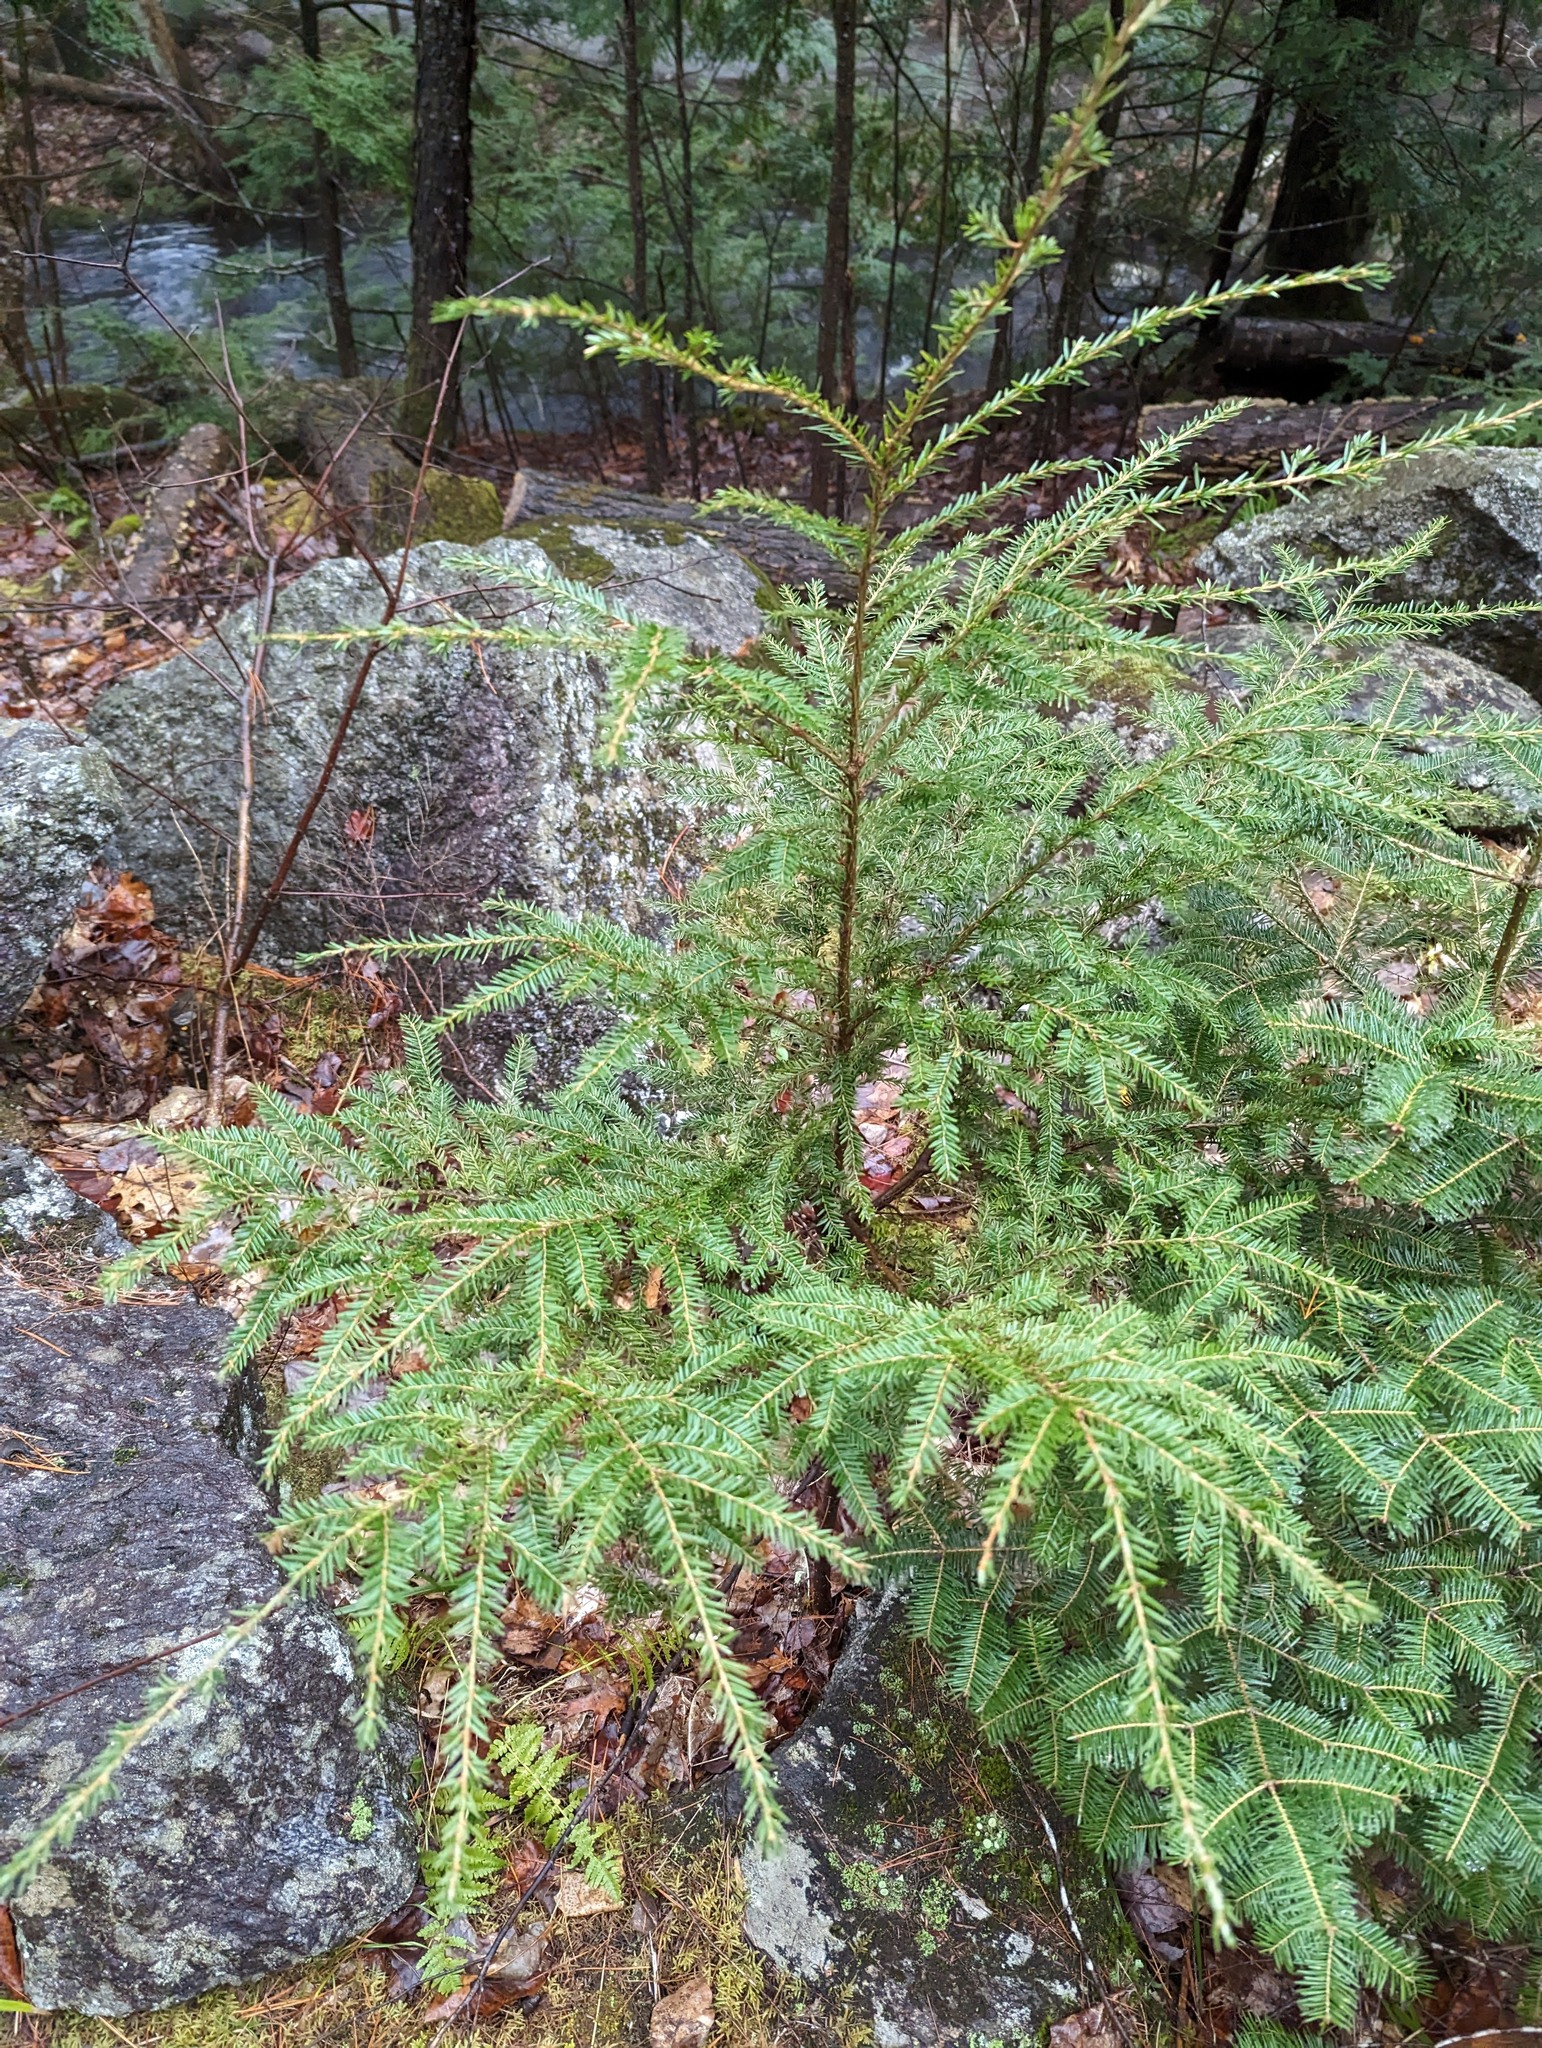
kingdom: Plantae
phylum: Tracheophyta
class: Pinopsida
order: Pinales
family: Pinaceae
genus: Tsuga
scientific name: Tsuga canadensis
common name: Eastern hemlock
